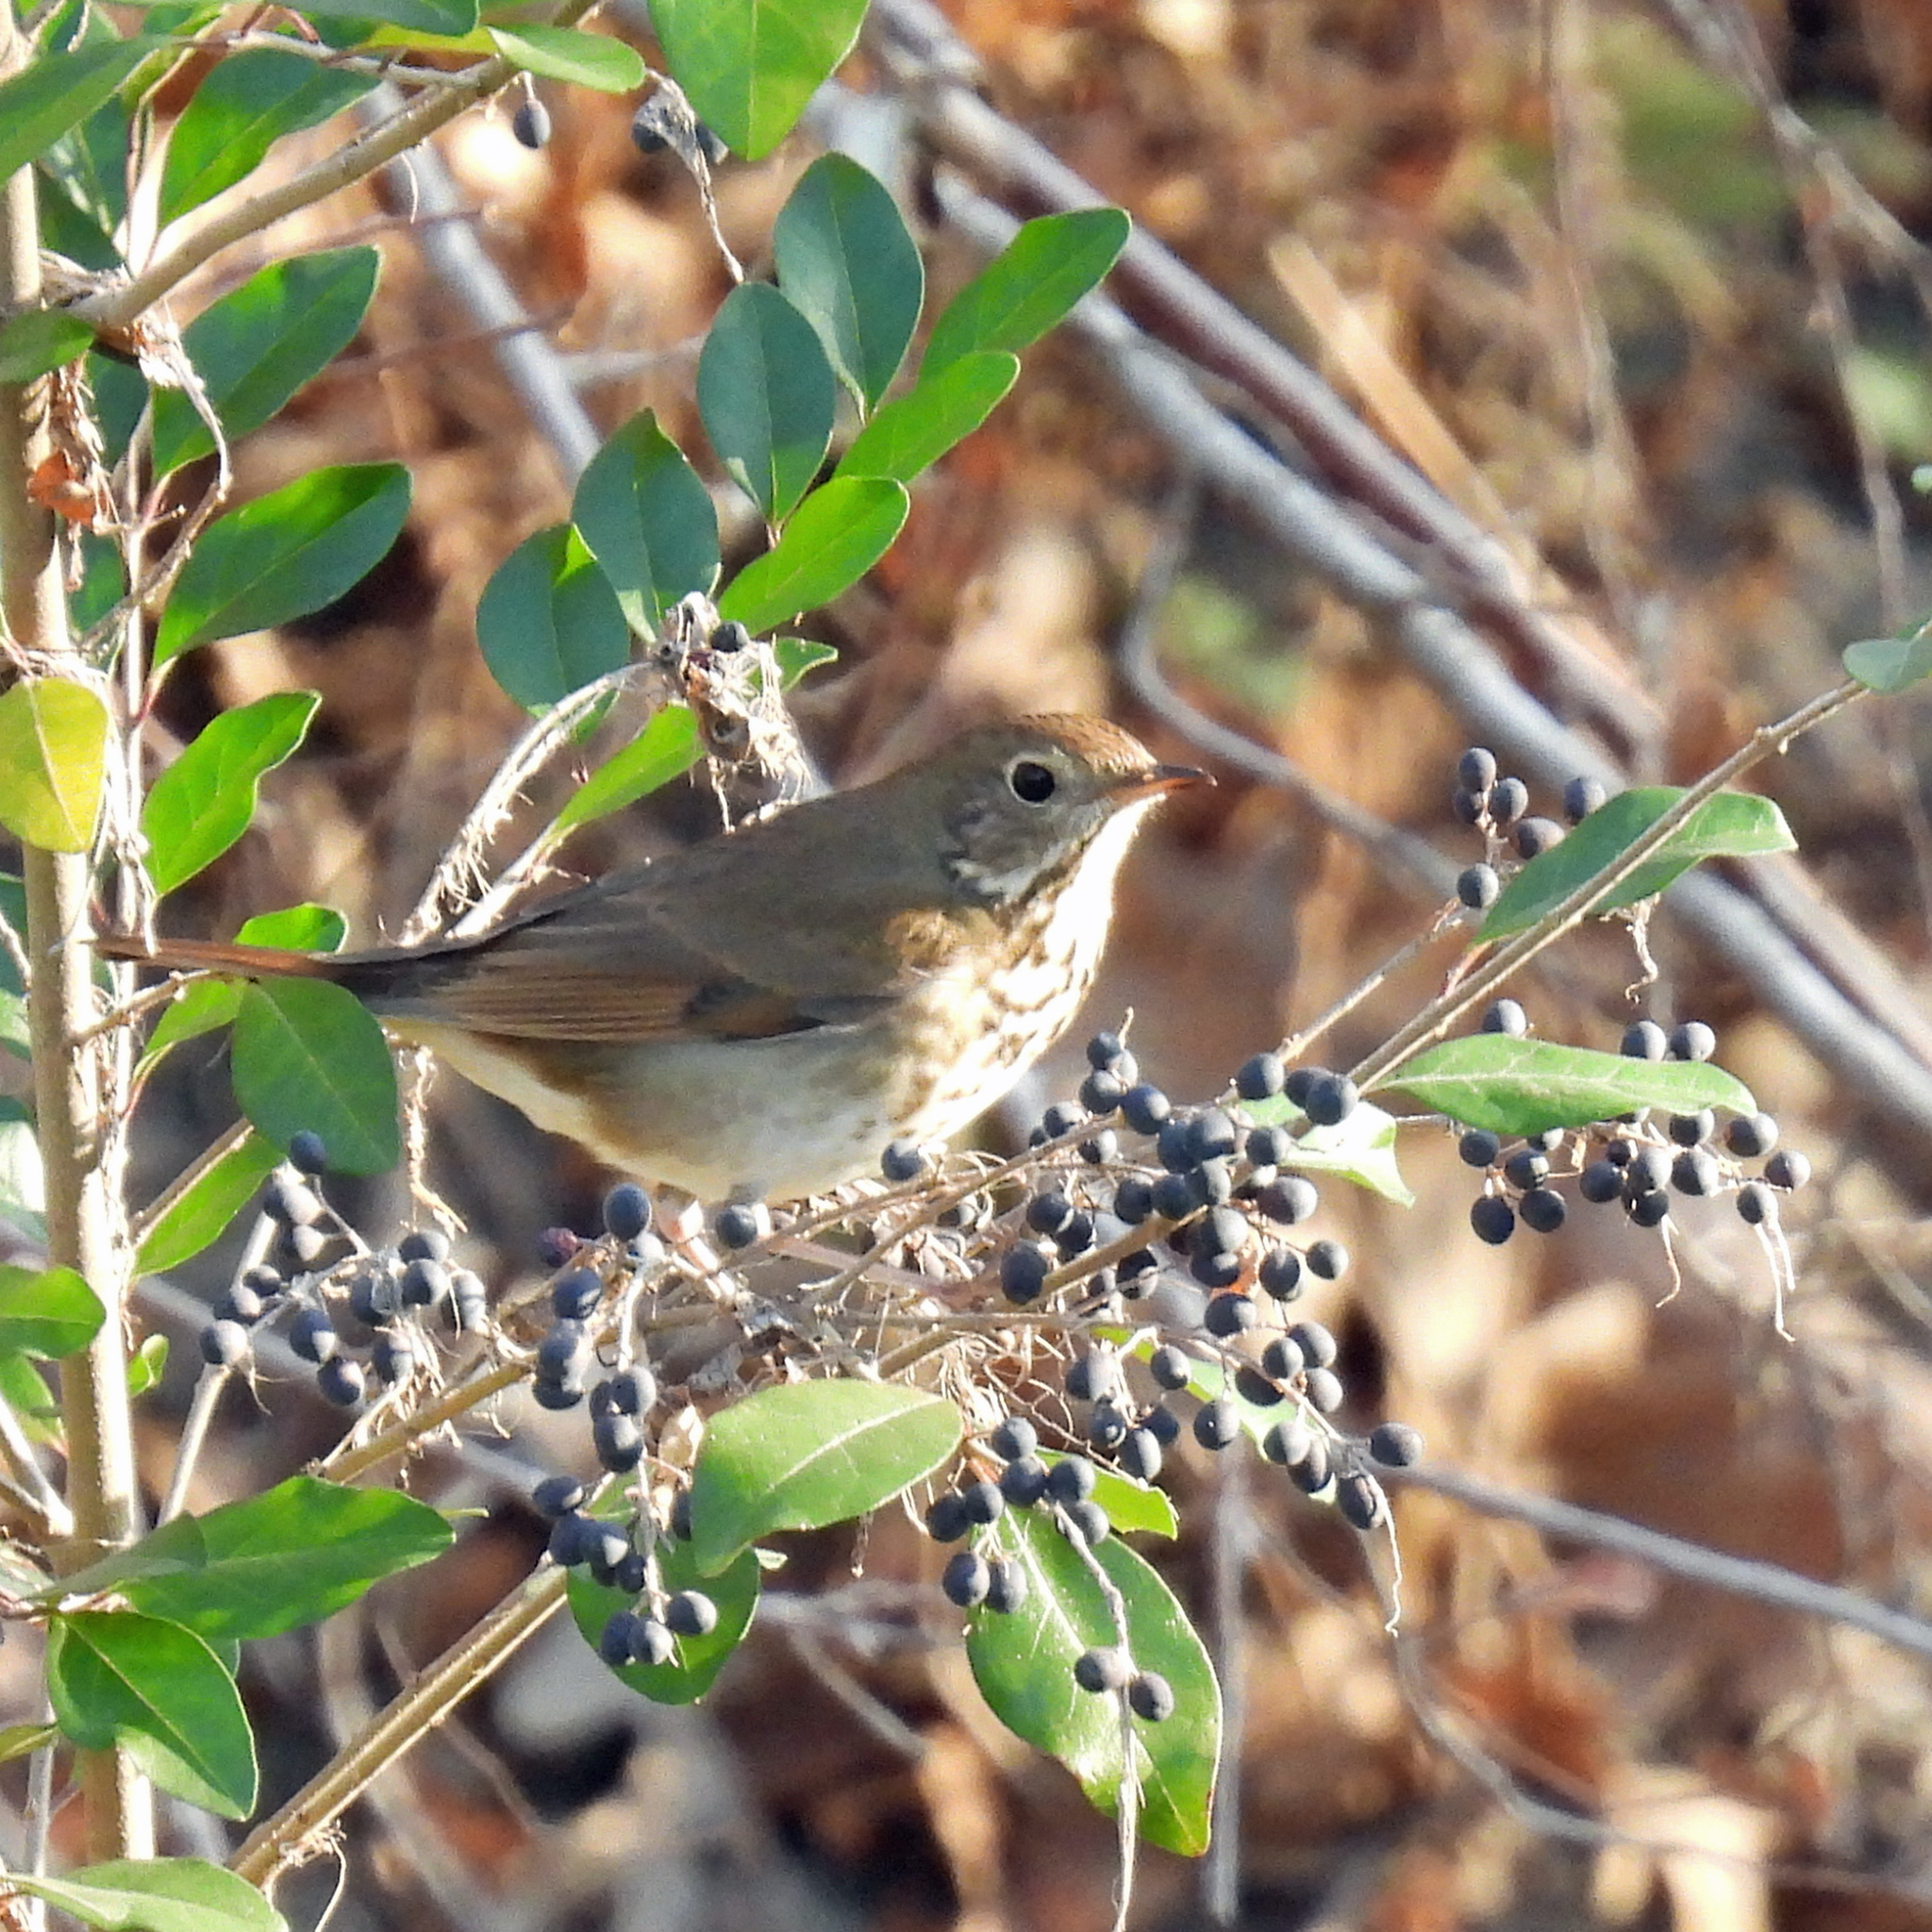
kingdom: Animalia
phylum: Chordata
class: Aves
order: Passeriformes
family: Turdidae
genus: Catharus
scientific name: Catharus guttatus
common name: Hermit thrush
